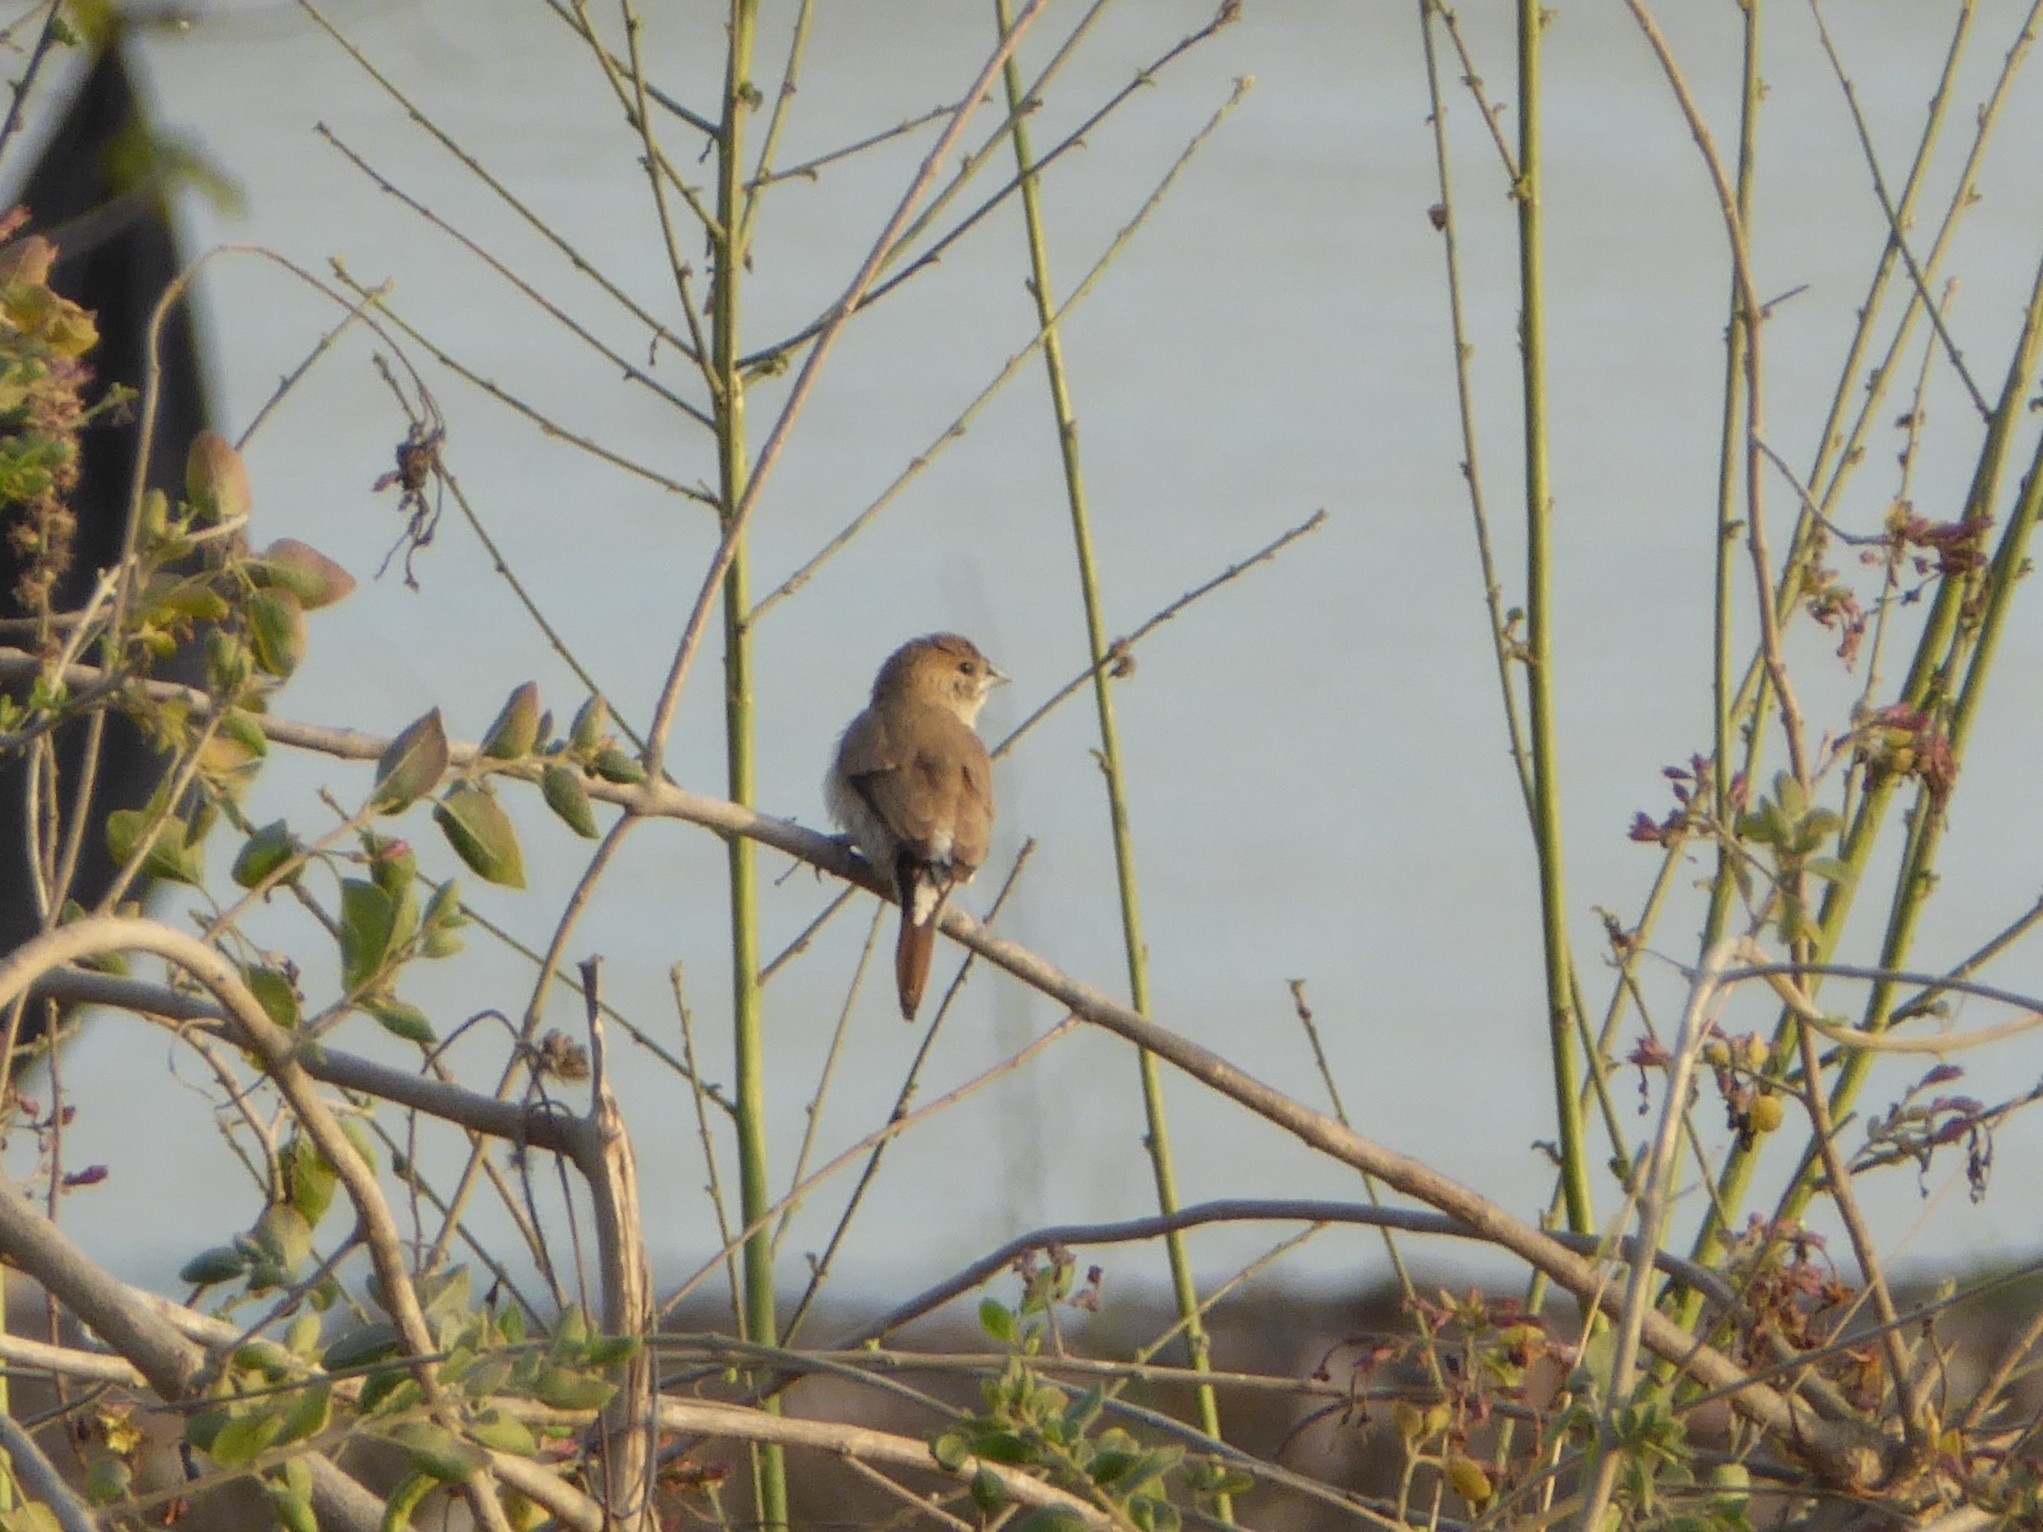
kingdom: Animalia
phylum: Chordata
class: Aves
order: Passeriformes
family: Estrildidae
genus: Euodice
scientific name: Euodice malabarica
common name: Indian silverbill
